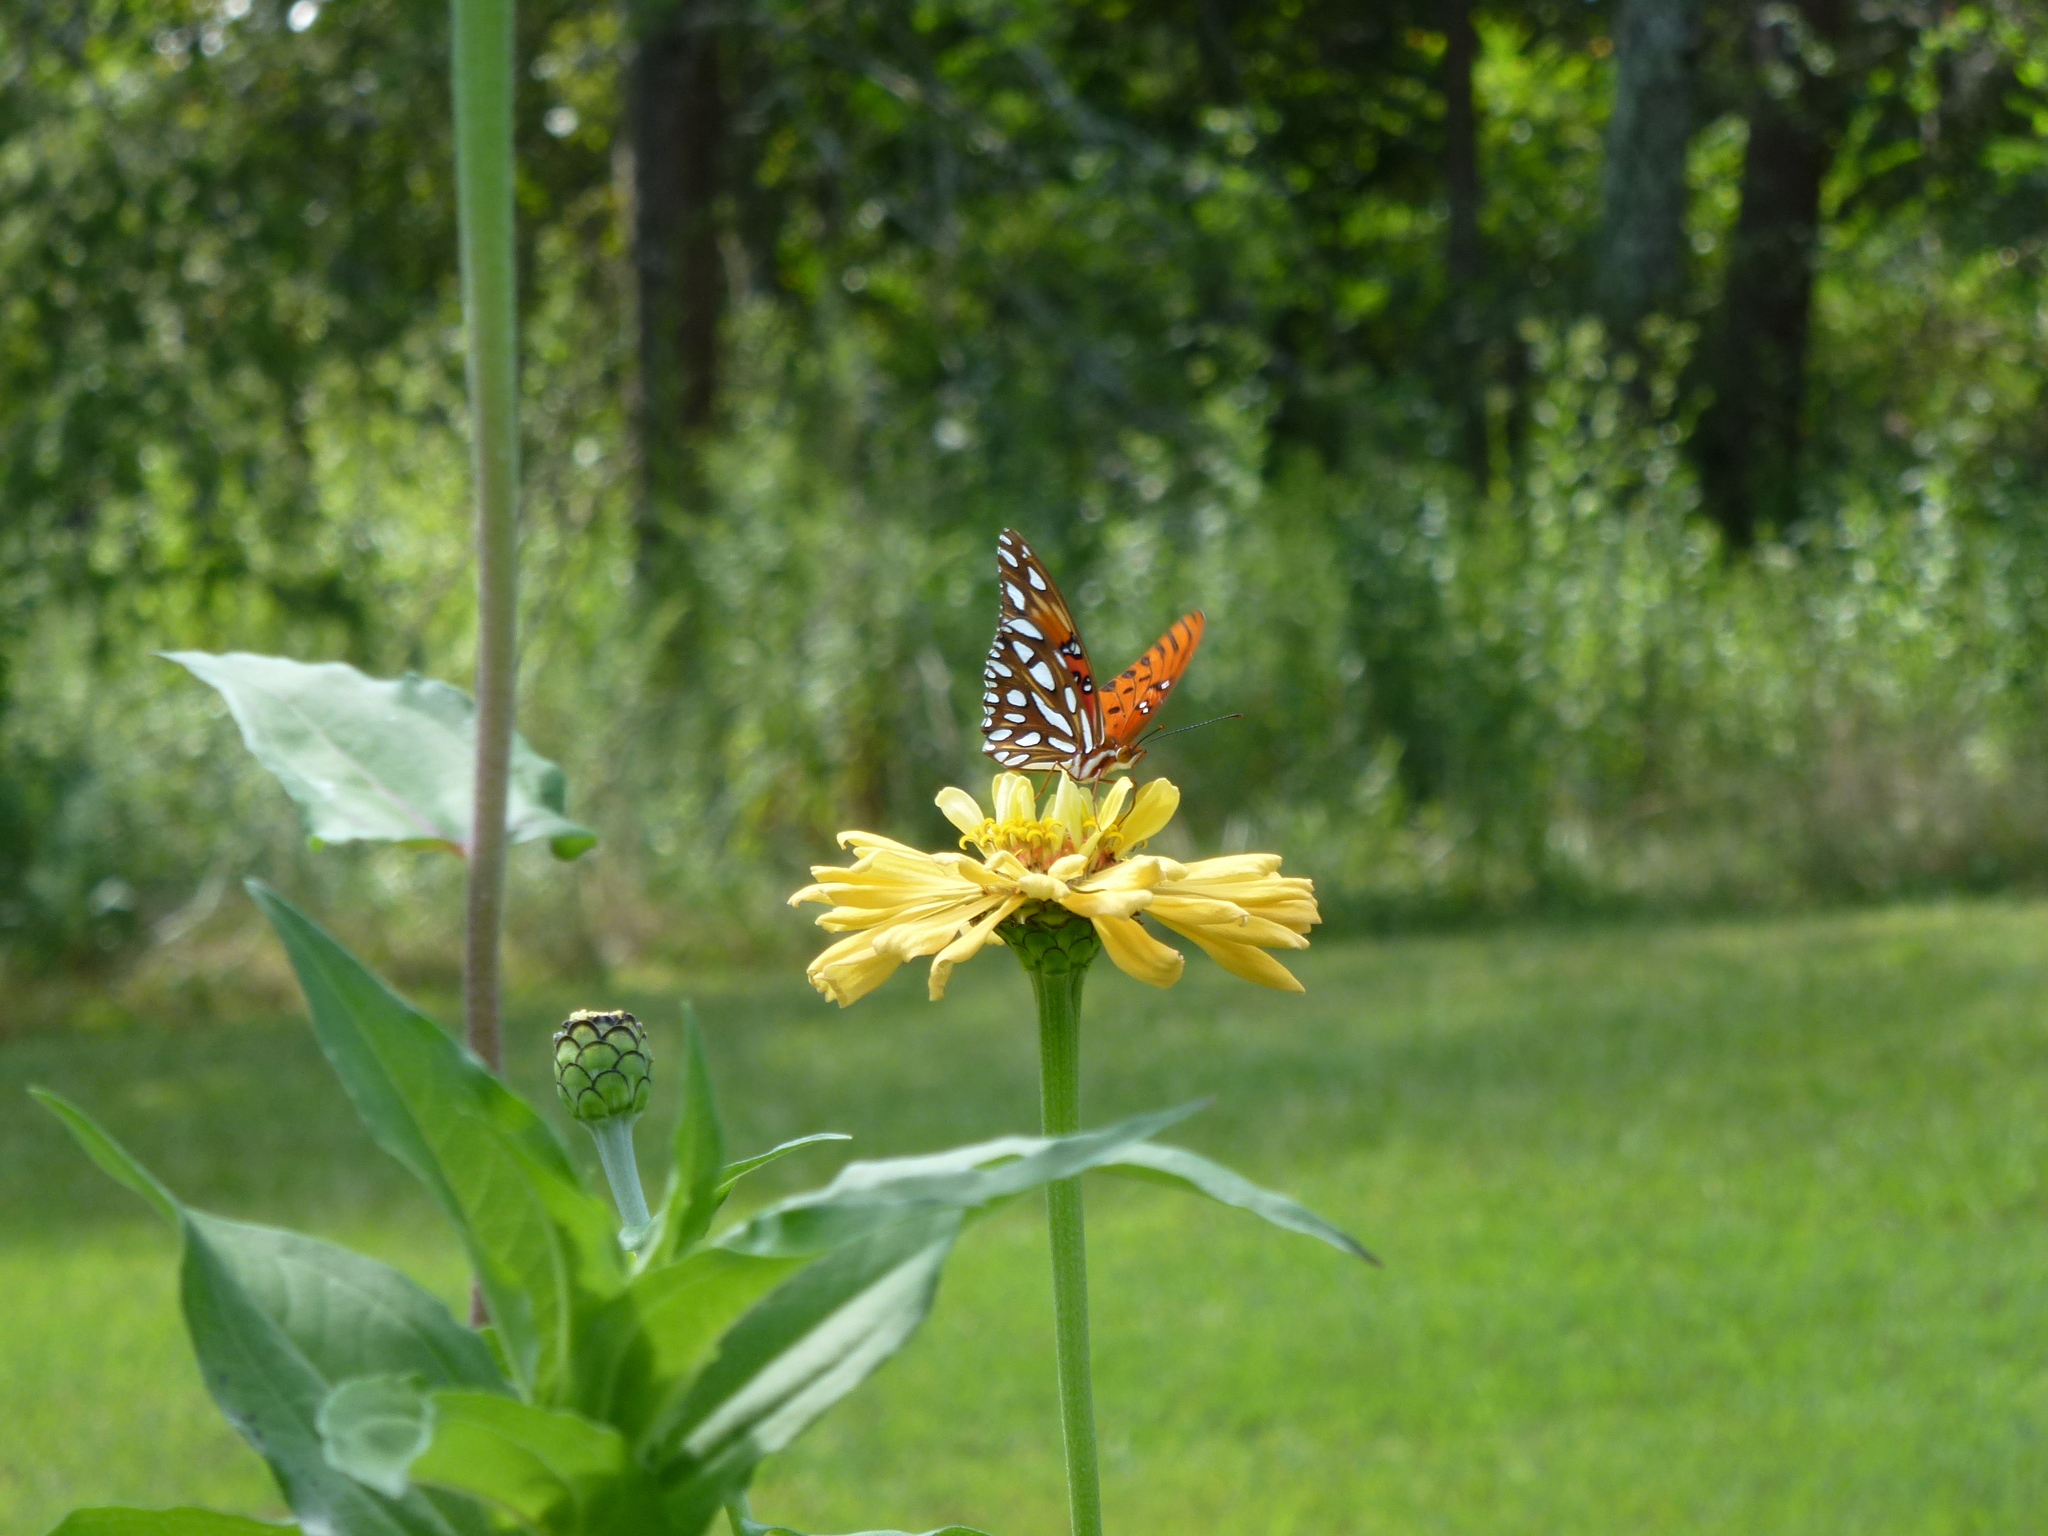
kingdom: Animalia
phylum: Arthropoda
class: Insecta
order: Lepidoptera
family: Nymphalidae
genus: Dione
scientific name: Dione vanillae
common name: Gulf fritillary
